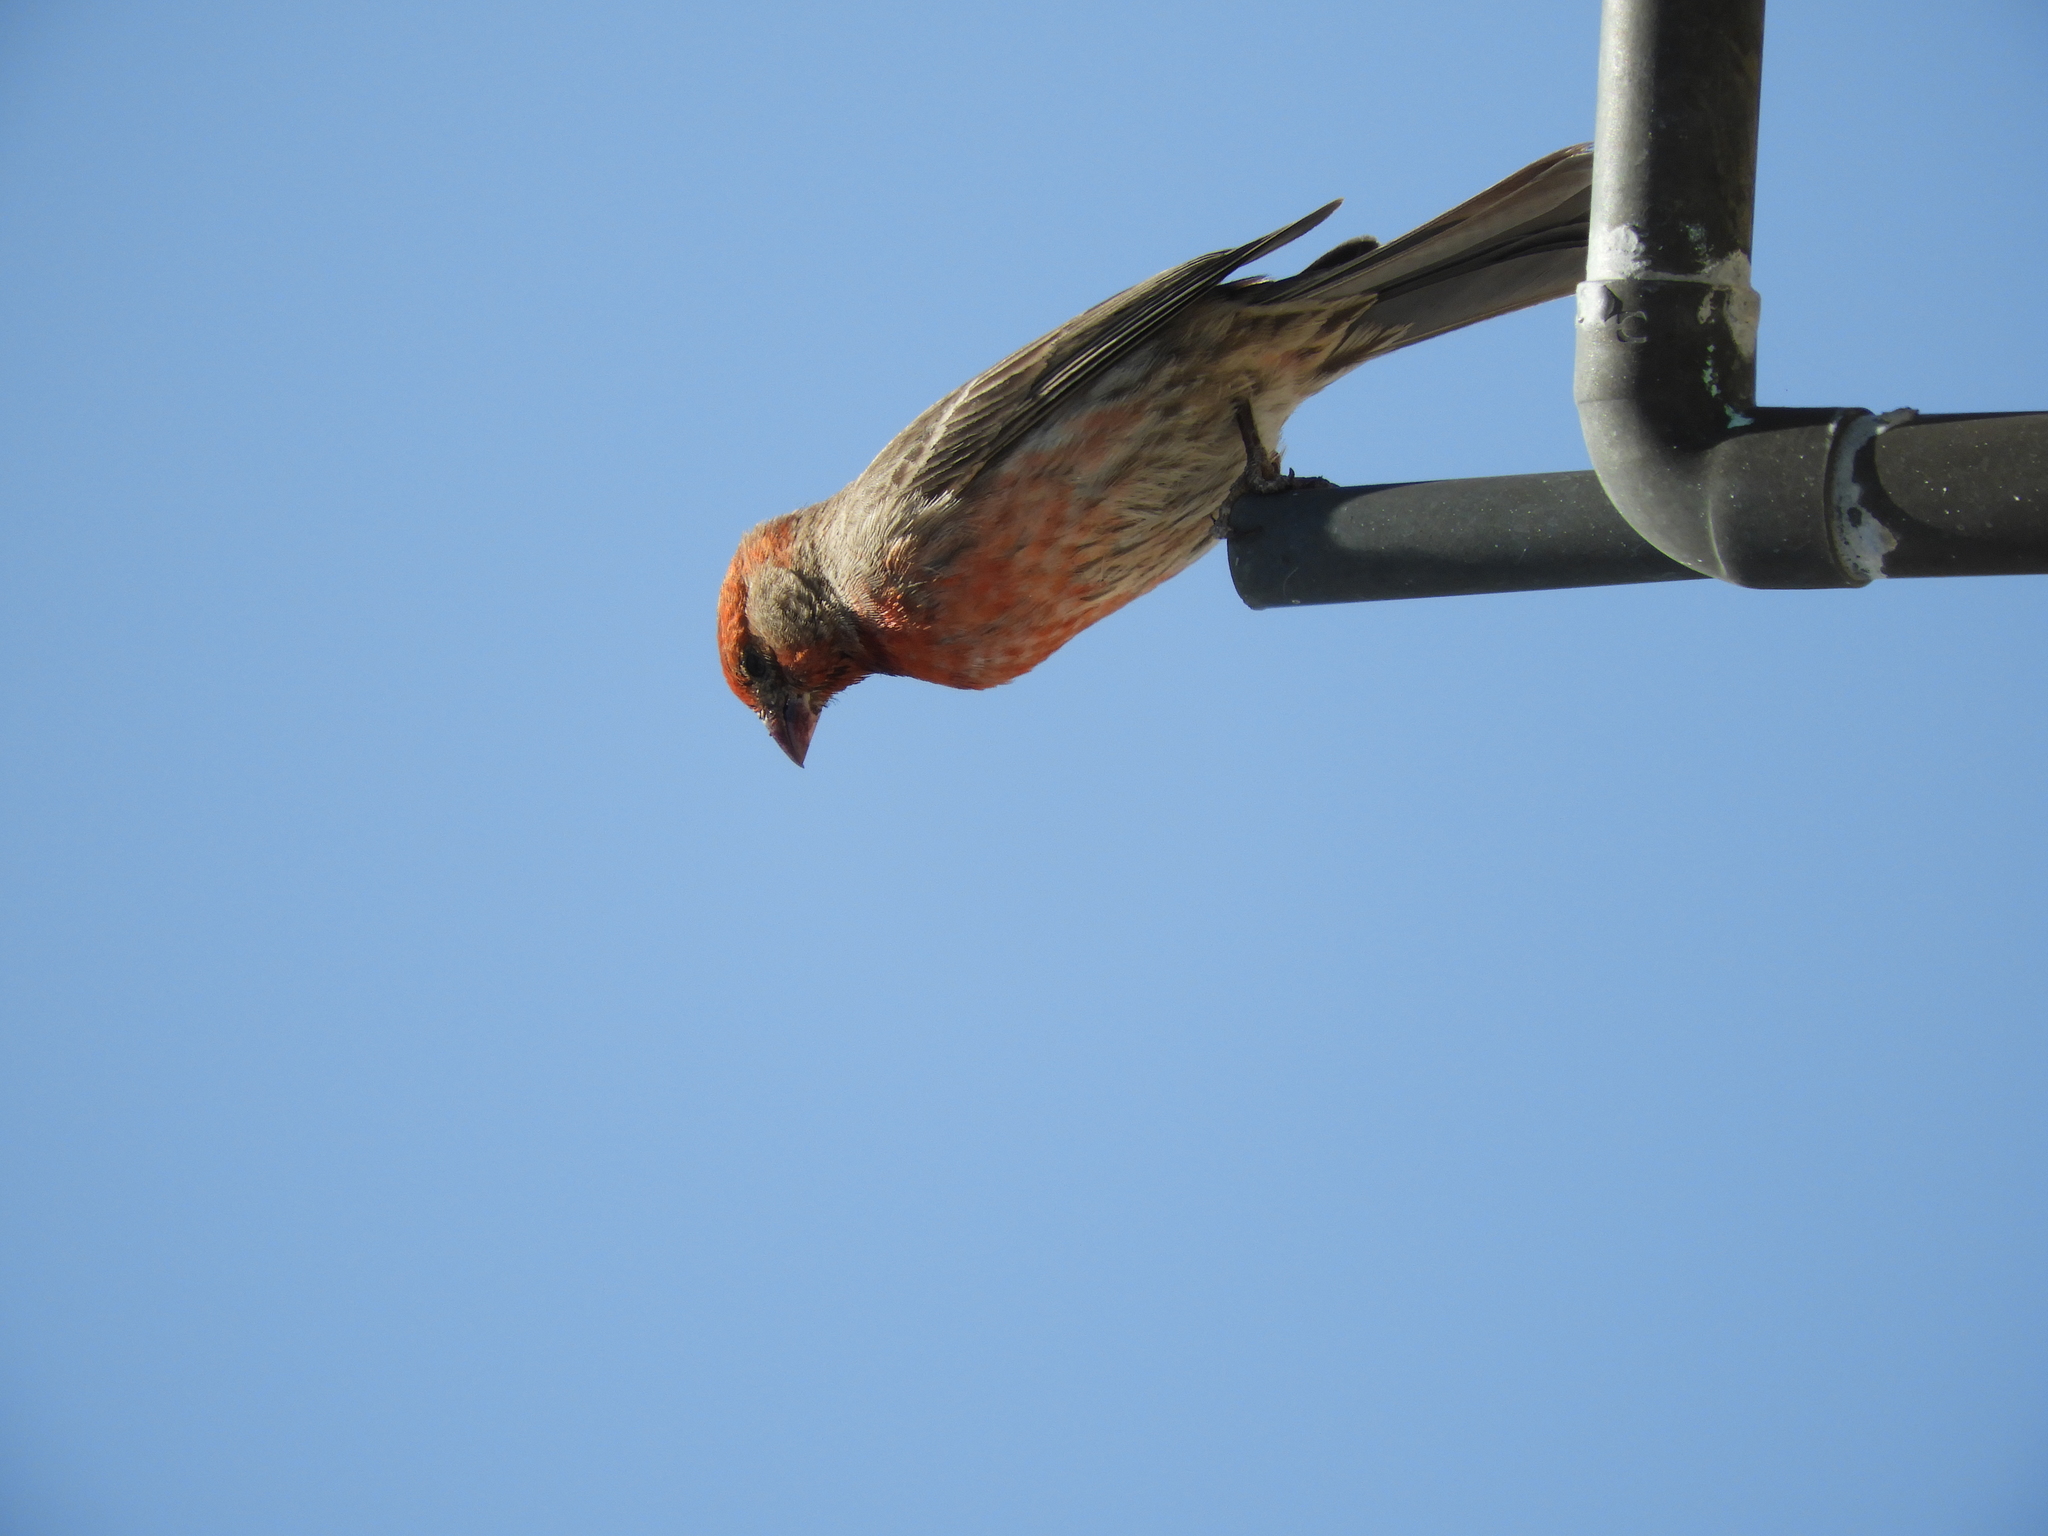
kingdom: Animalia
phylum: Chordata
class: Aves
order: Passeriformes
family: Fringillidae
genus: Haemorhous
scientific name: Haemorhous mexicanus
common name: House finch
